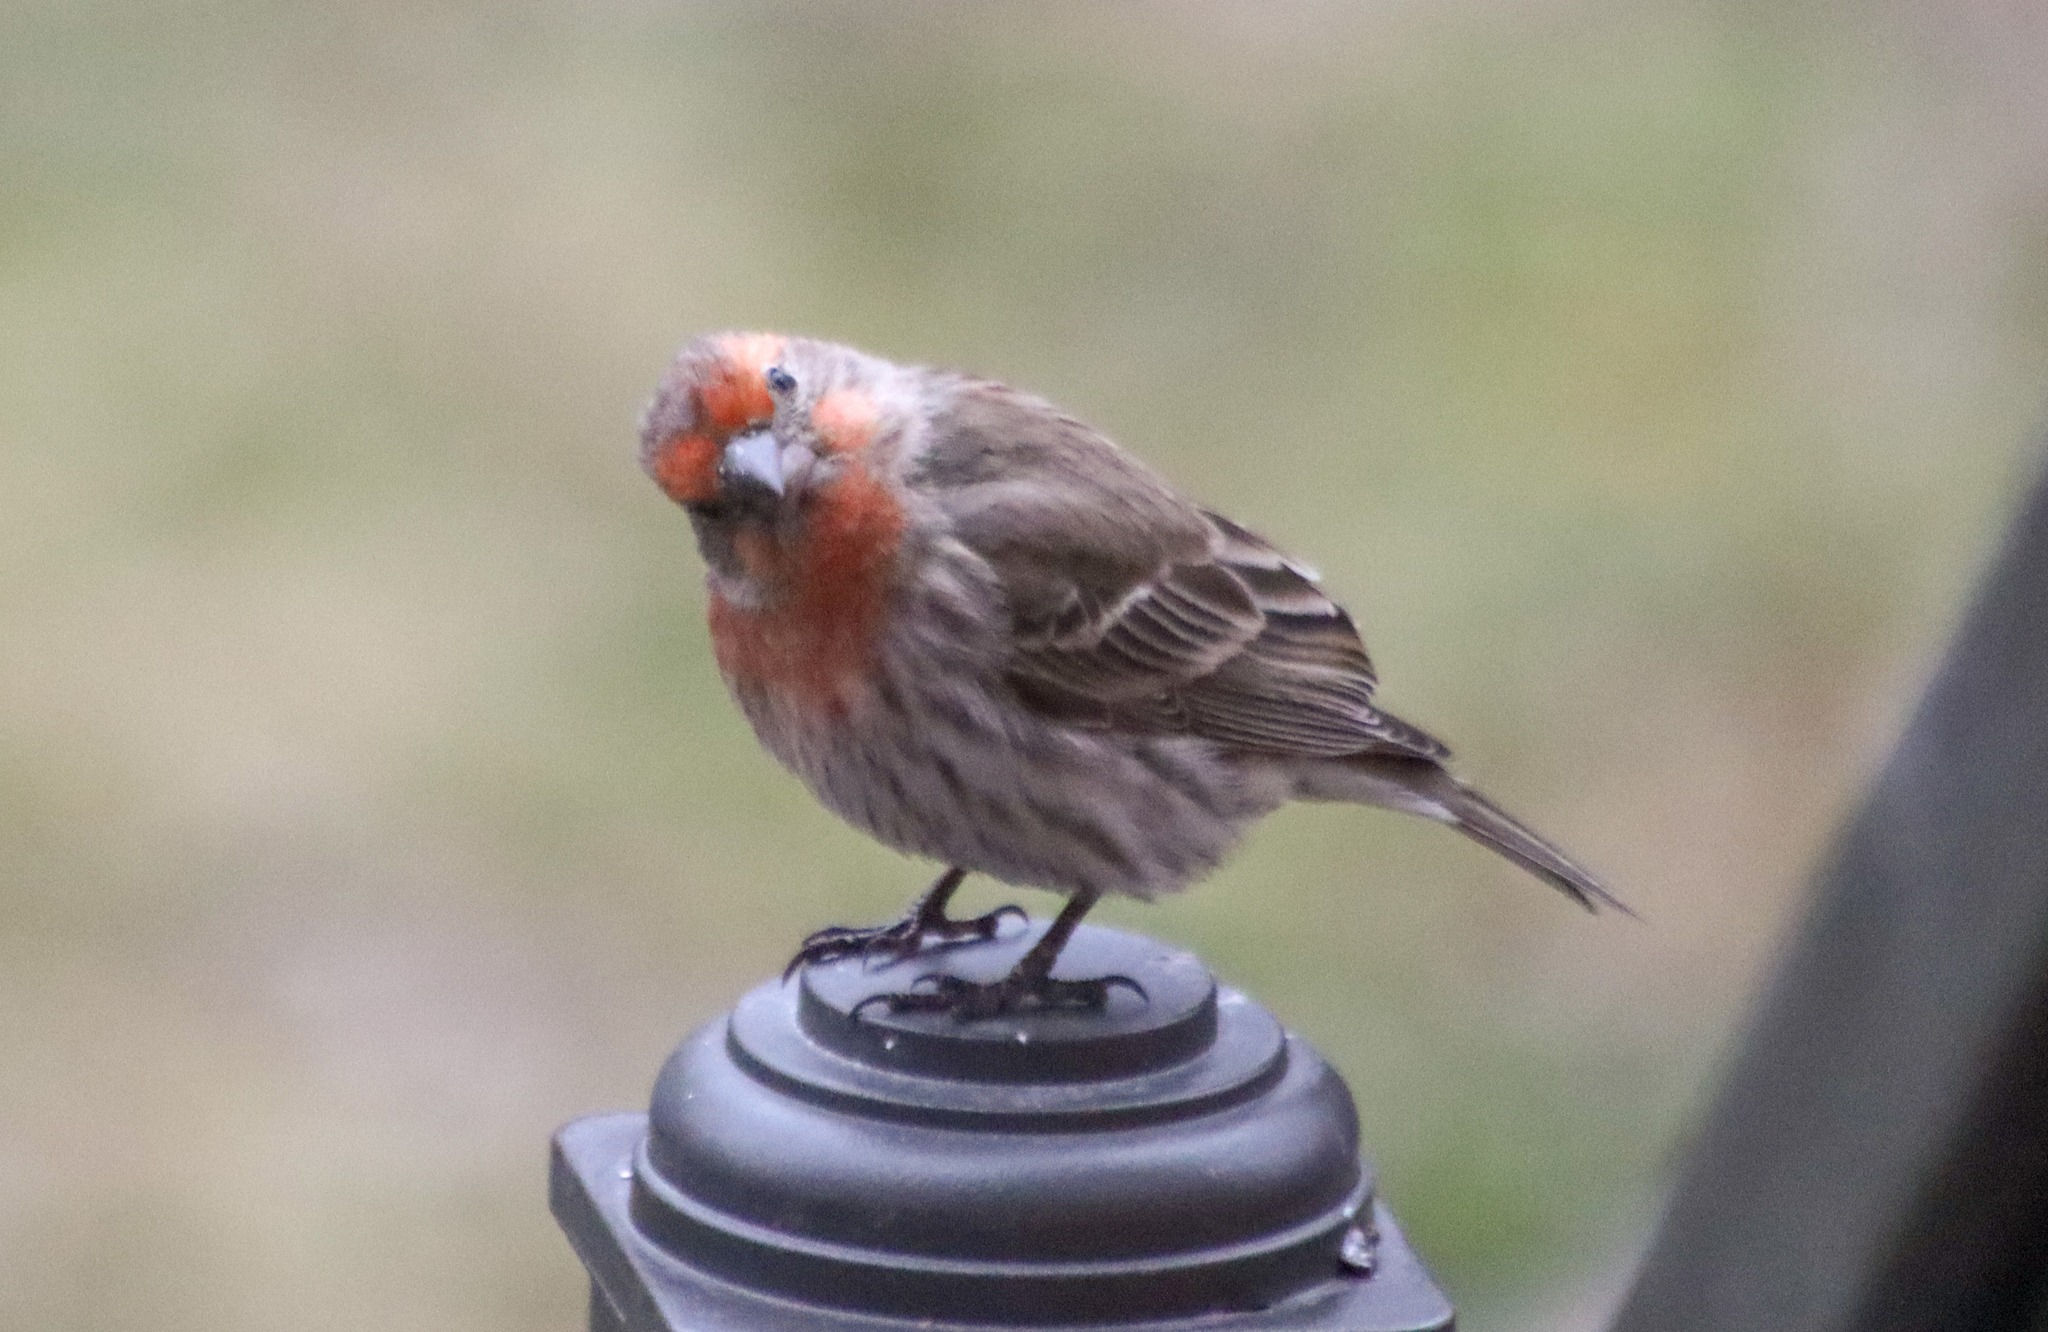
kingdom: Animalia
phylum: Chordata
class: Aves
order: Passeriformes
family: Fringillidae
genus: Haemorhous
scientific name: Haemorhous mexicanus
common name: House finch
